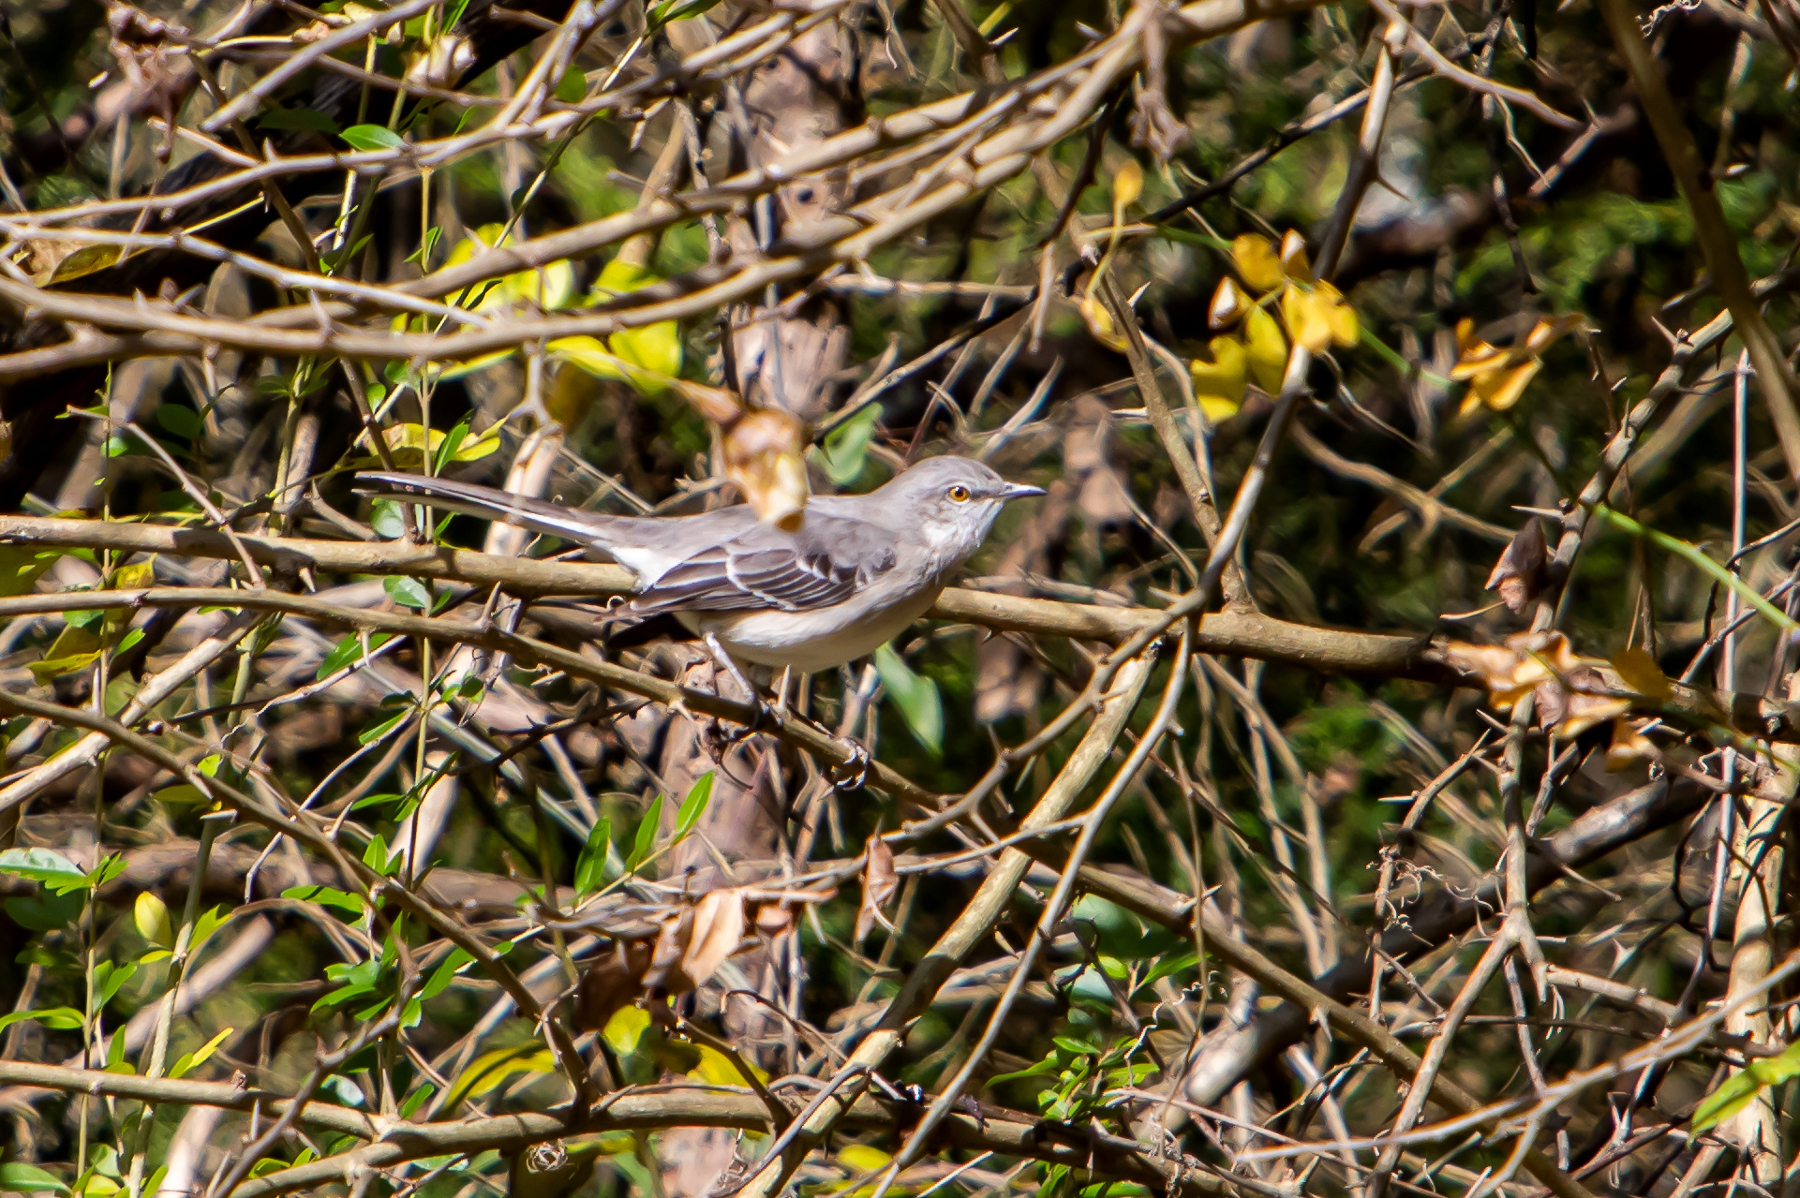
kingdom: Animalia
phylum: Chordata
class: Aves
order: Passeriformes
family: Mimidae
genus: Mimus
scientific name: Mimus polyglottos
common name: Northern mockingbird
